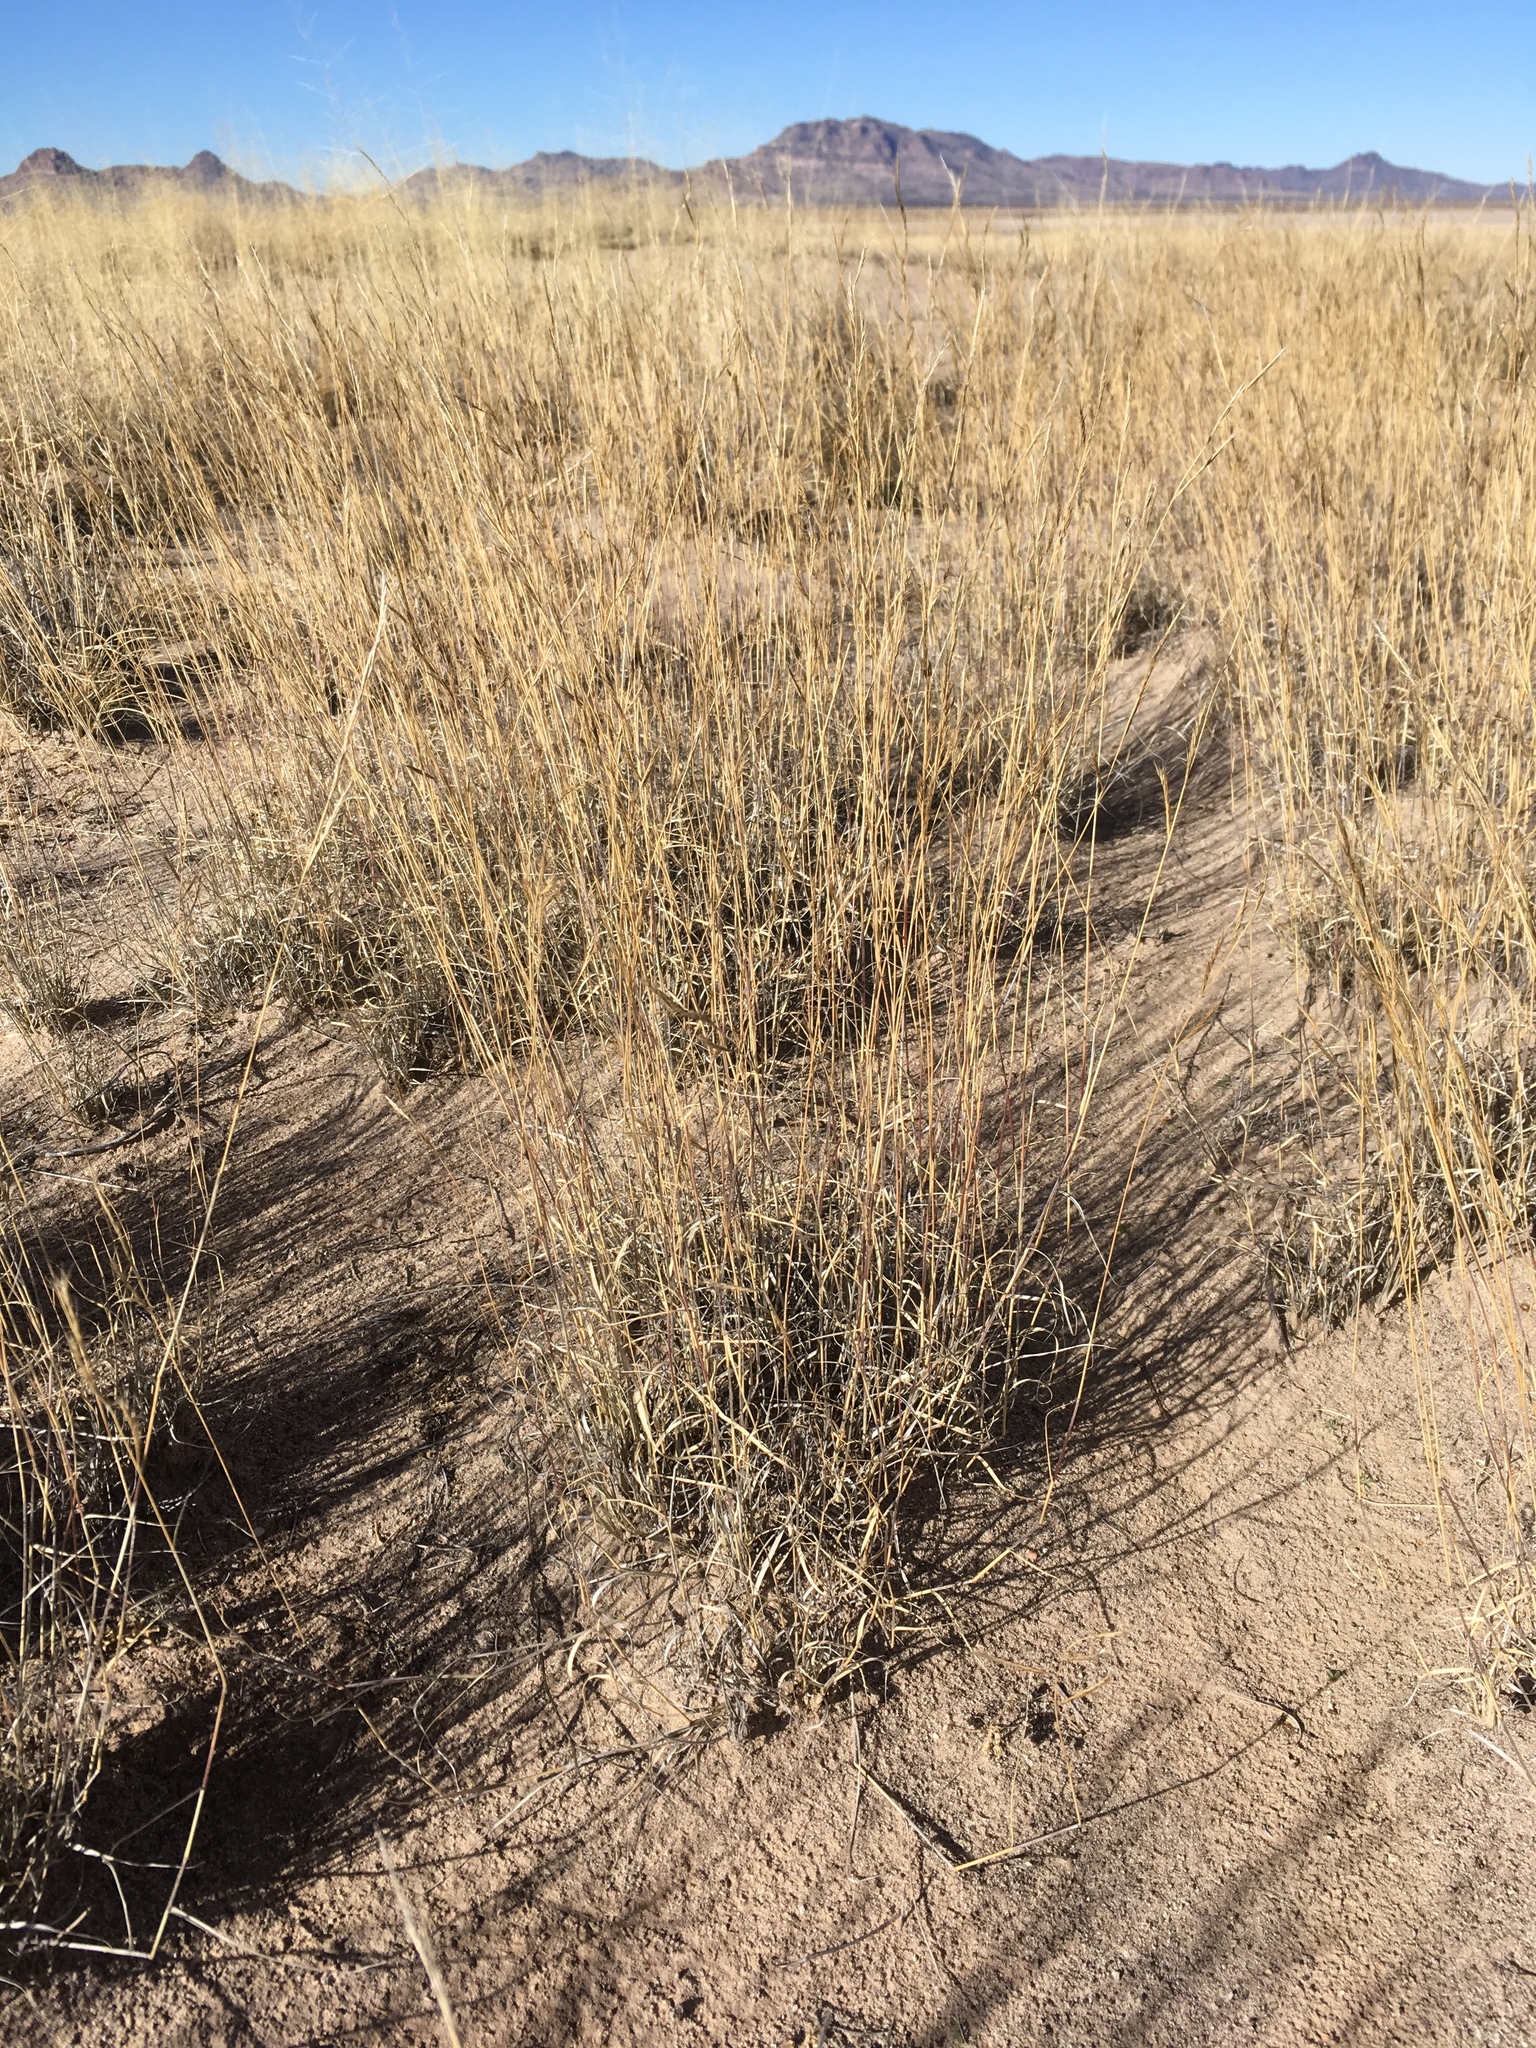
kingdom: Plantae
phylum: Tracheophyta
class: Liliopsida
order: Poales
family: Poaceae
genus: Bouteloua
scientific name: Bouteloua eriopoda
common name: Woolly foot grama
